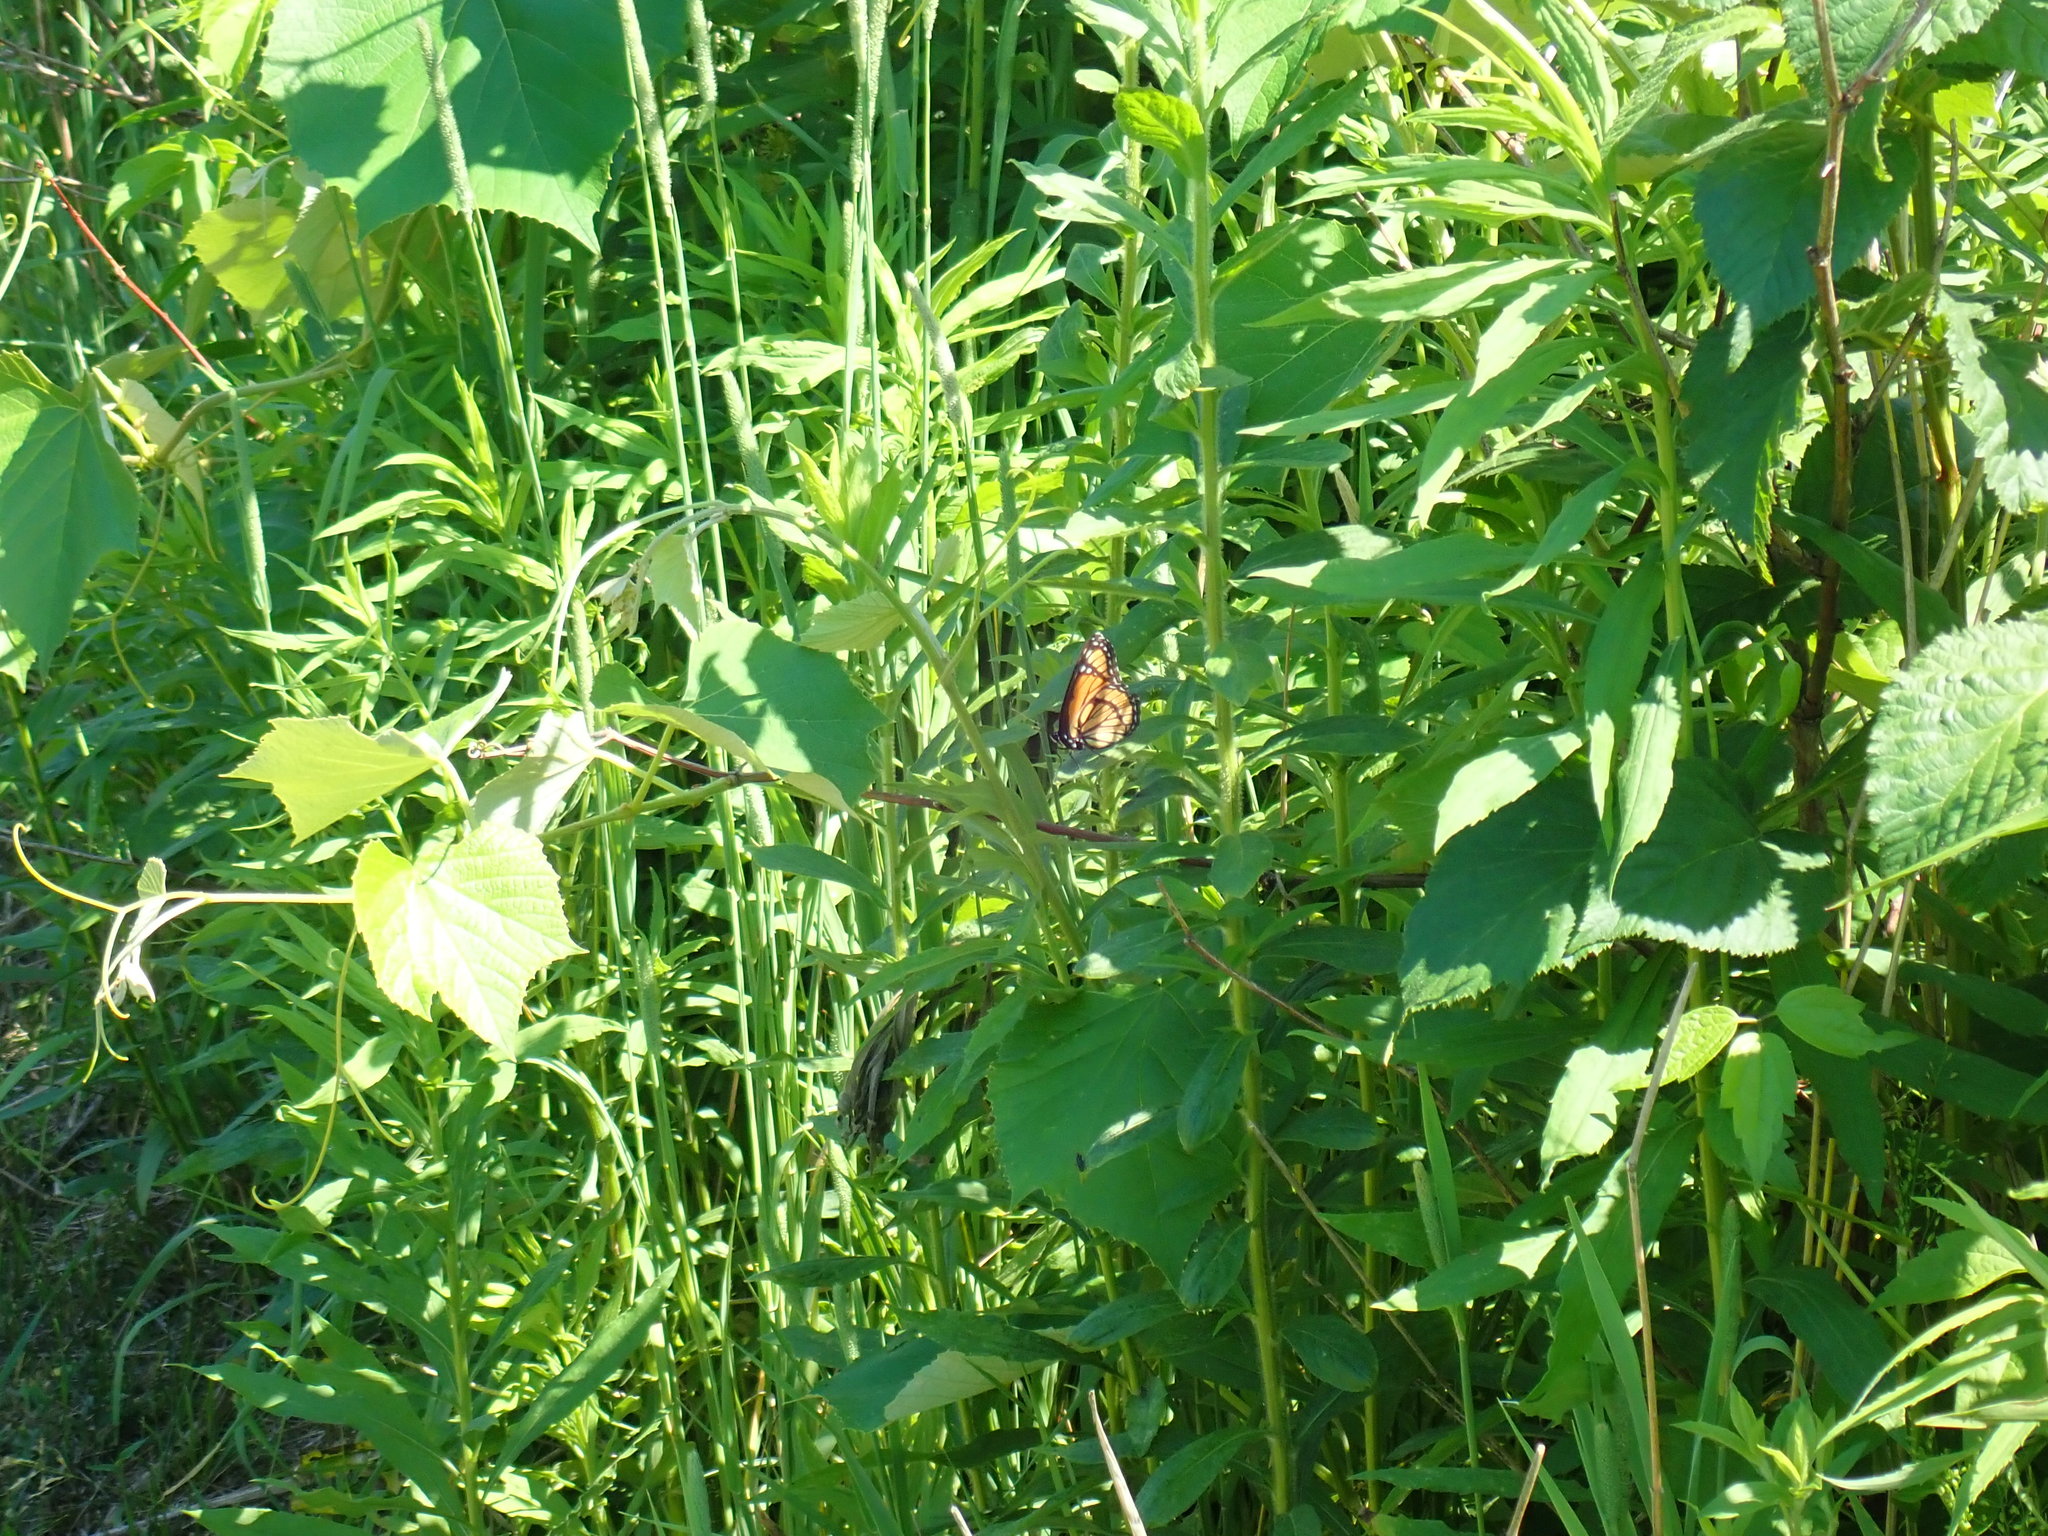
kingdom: Animalia
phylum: Arthropoda
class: Insecta
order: Lepidoptera
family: Nymphalidae
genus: Limenitis
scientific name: Limenitis archippus
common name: Viceroy
